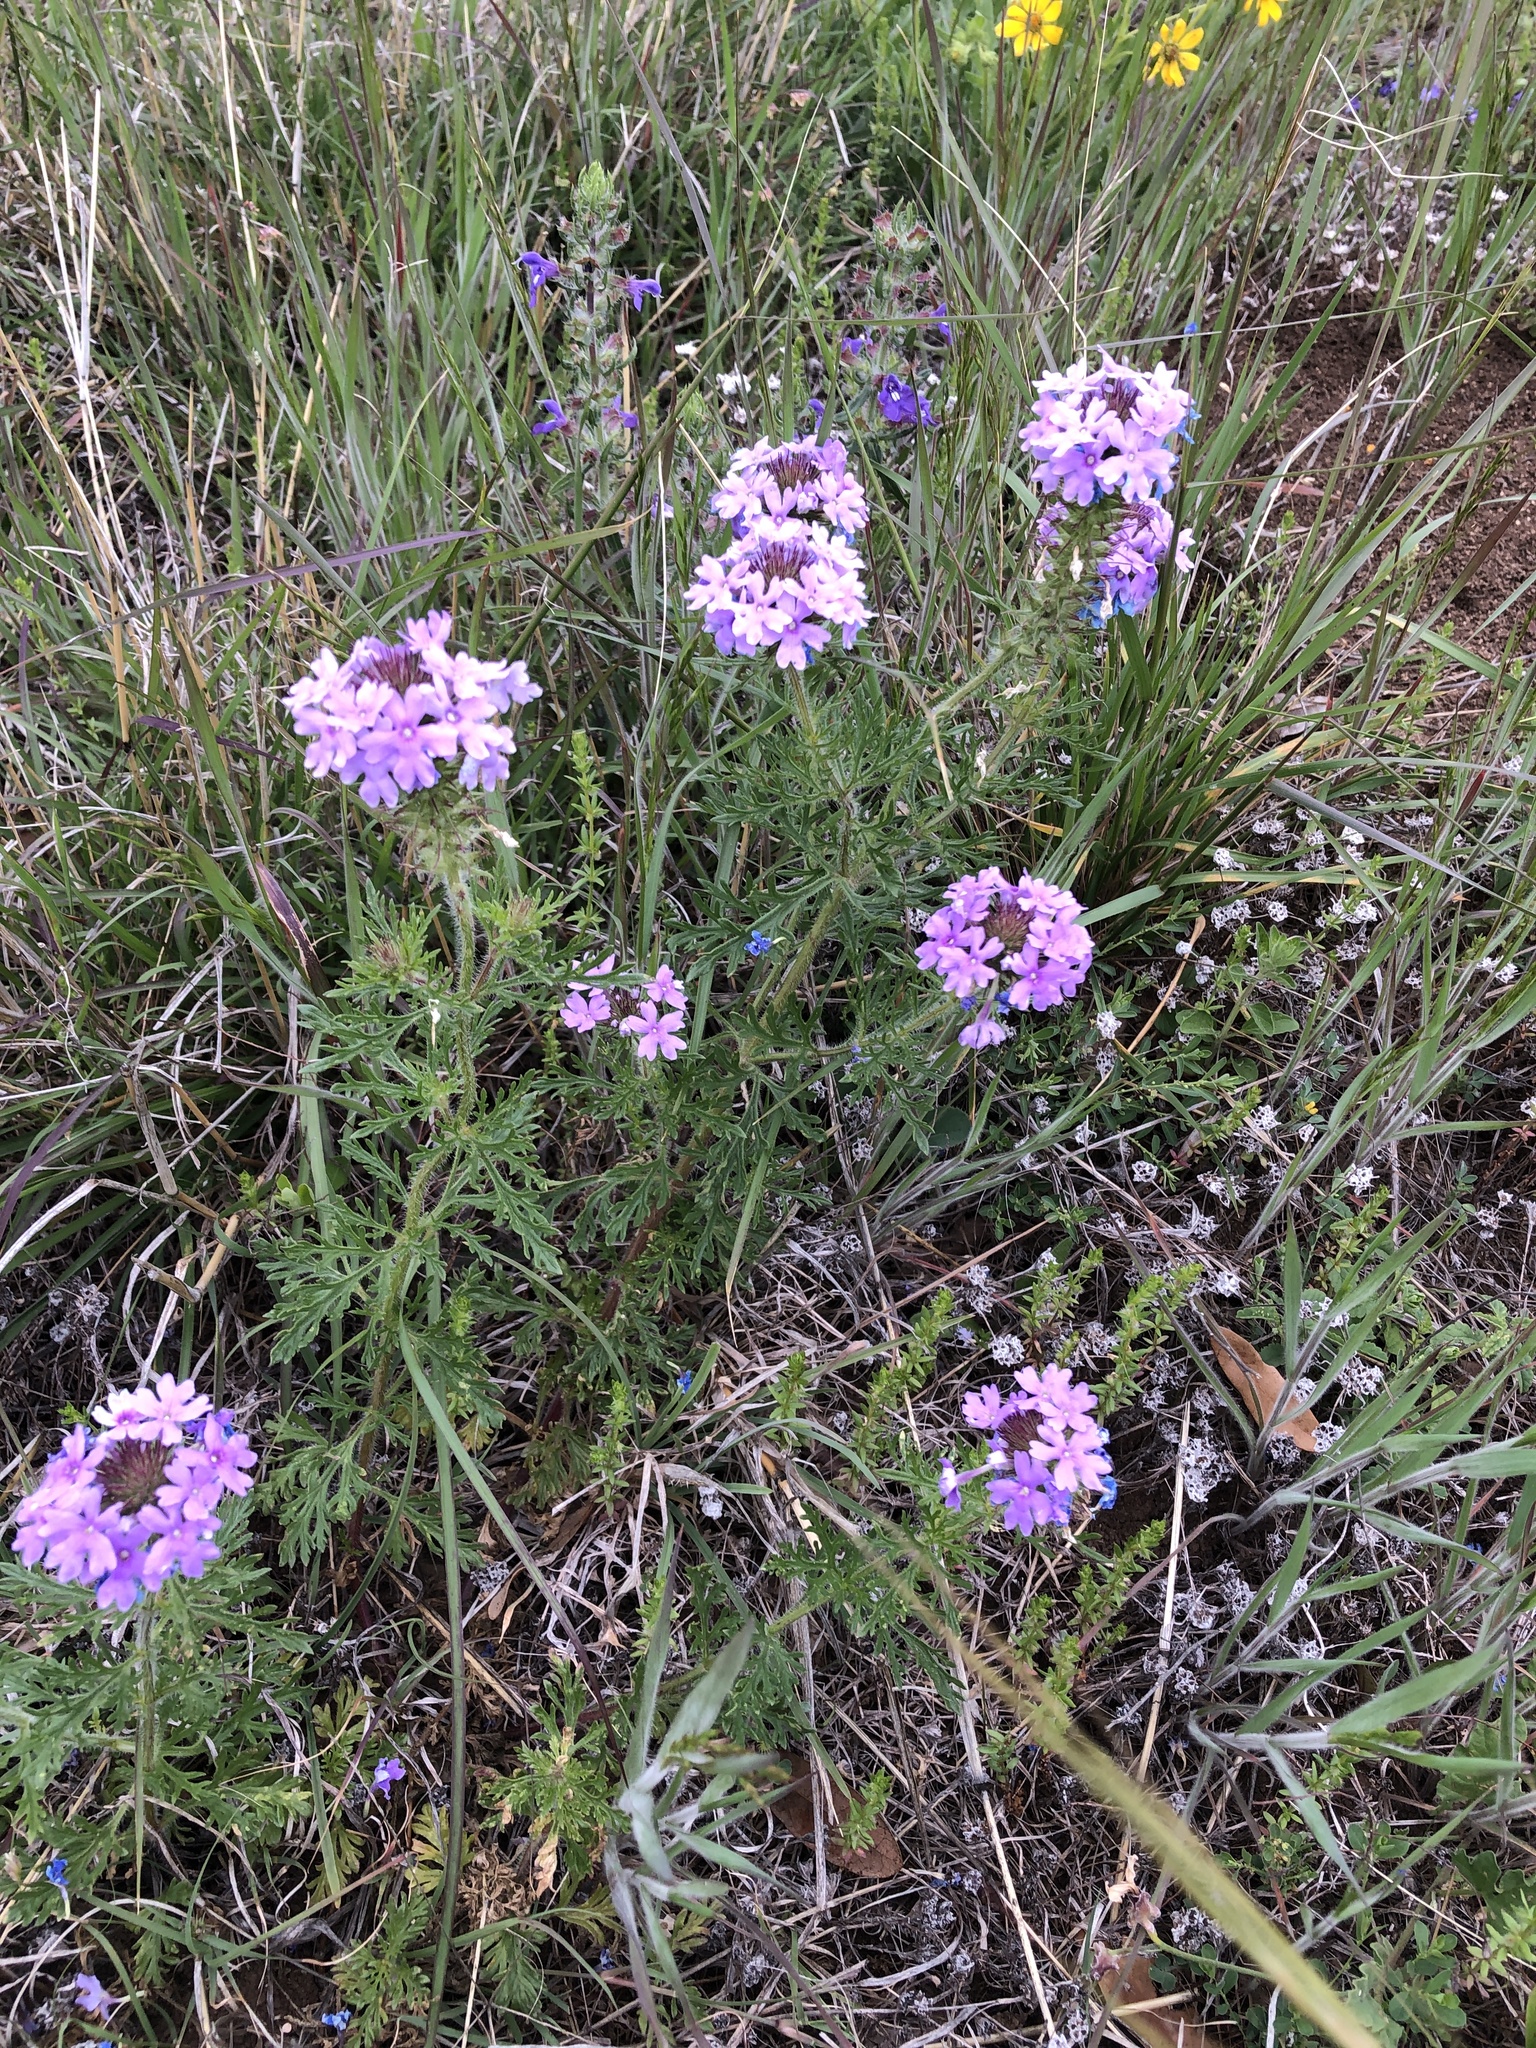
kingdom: Plantae
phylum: Tracheophyta
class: Magnoliopsida
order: Lamiales
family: Verbenaceae
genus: Verbena
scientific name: Verbena bipinnatifida
